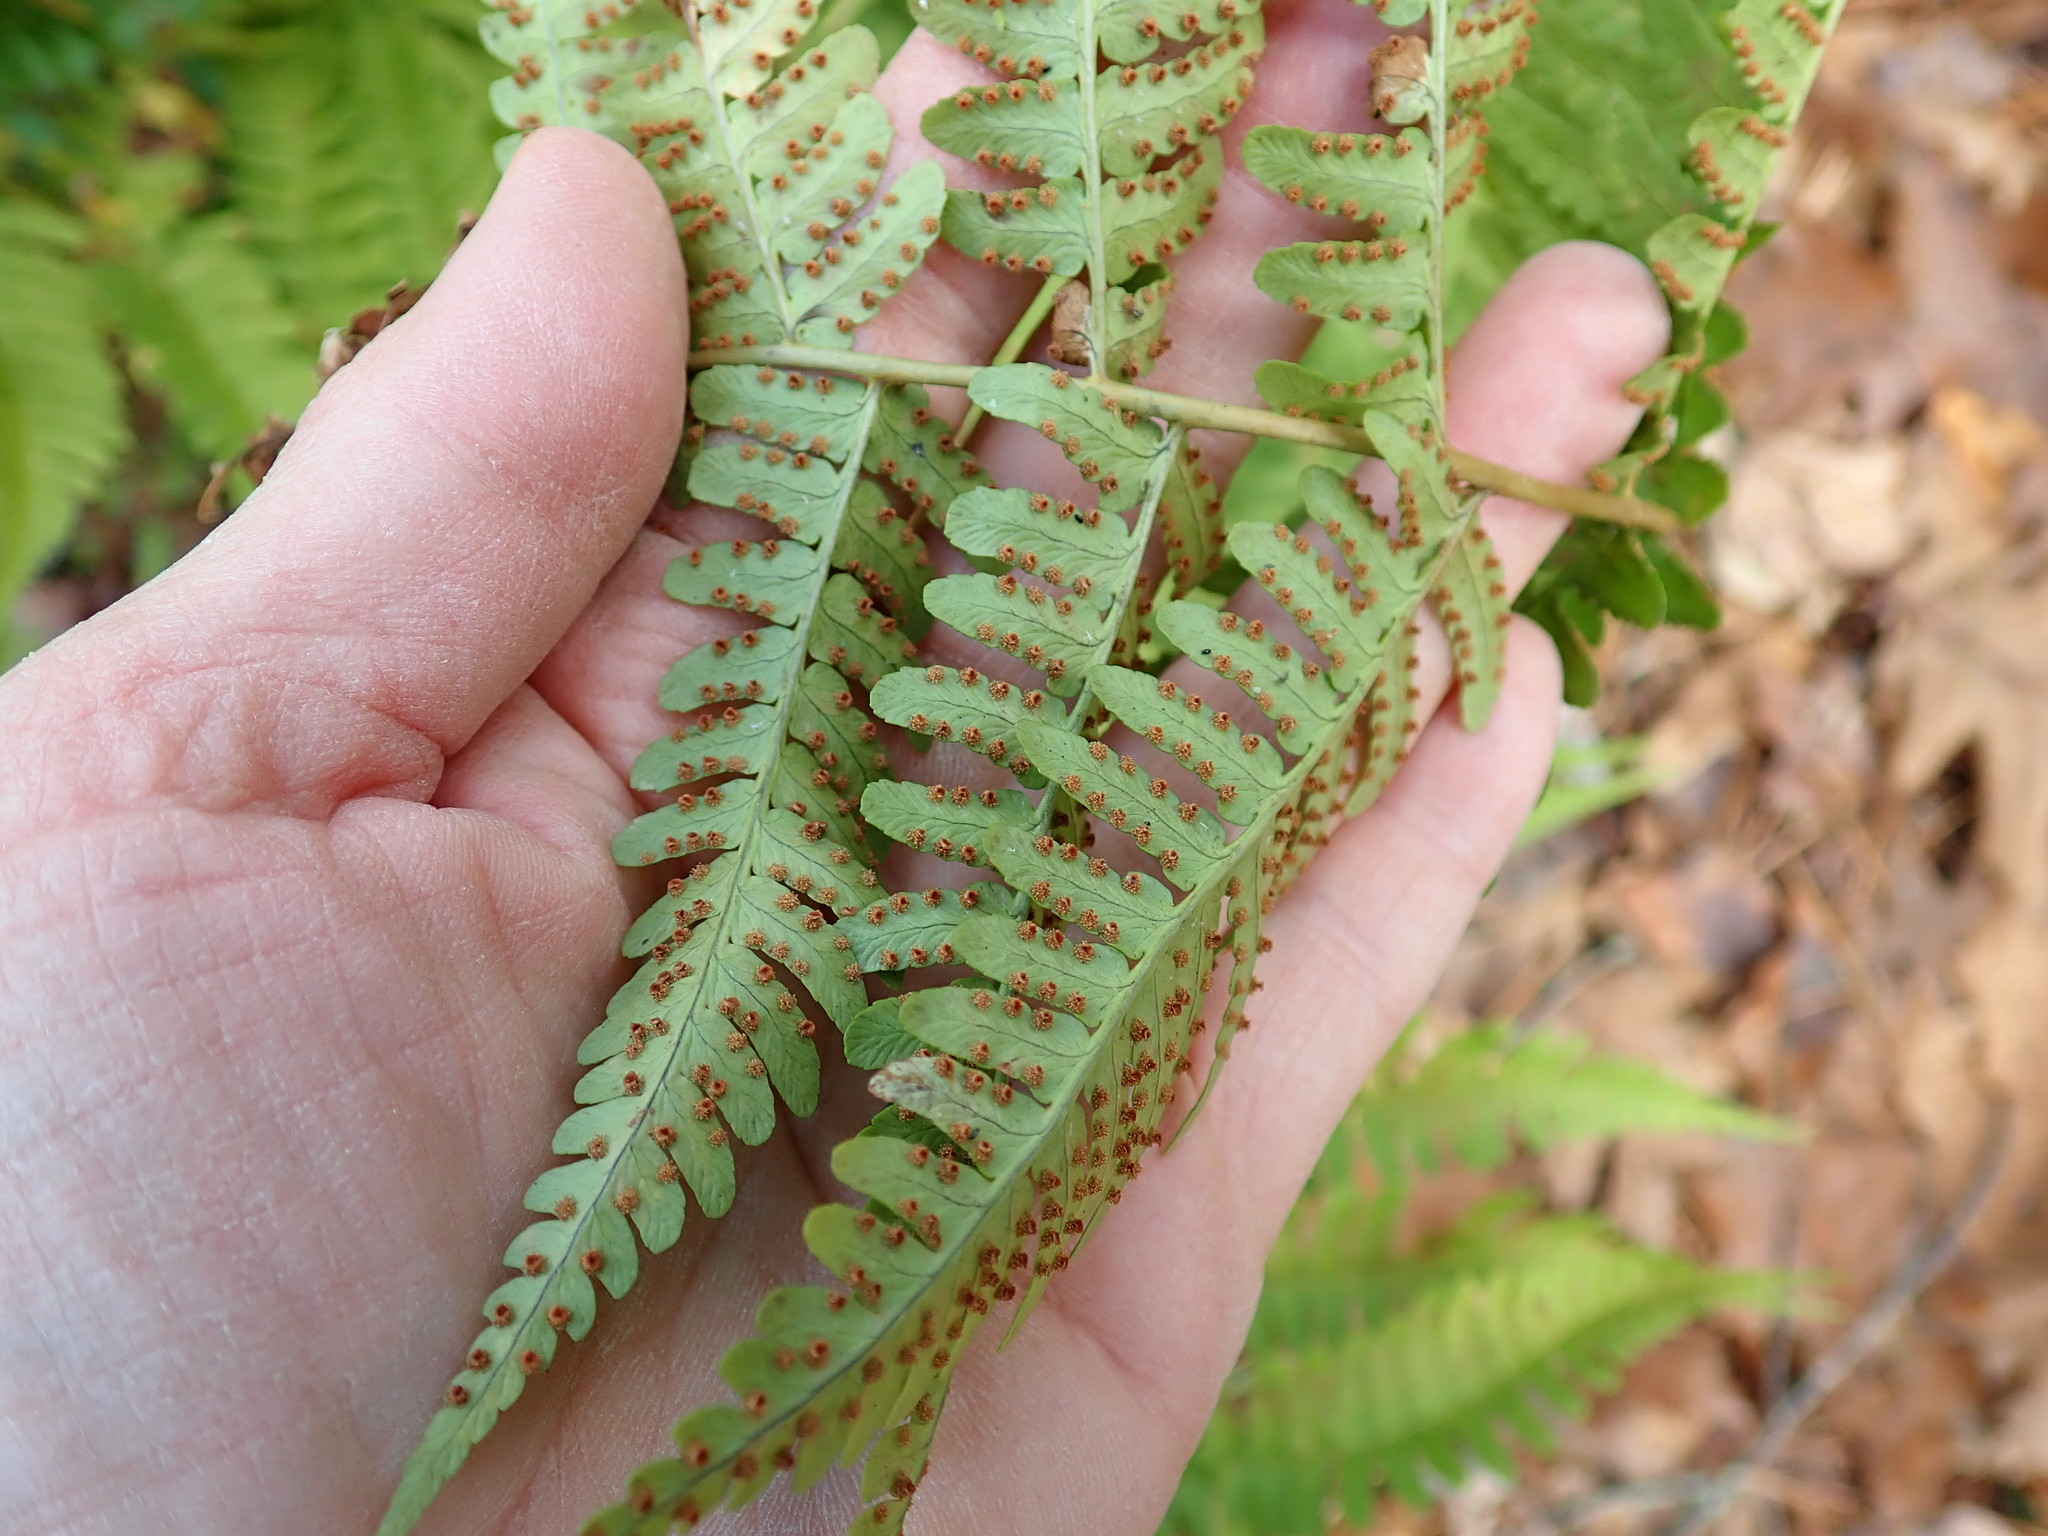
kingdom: Plantae
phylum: Tracheophyta
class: Polypodiopsida
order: Polypodiales
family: Dryopteridaceae
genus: Dryopteris
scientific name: Dryopteris marginalis
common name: Marginal wood fern
